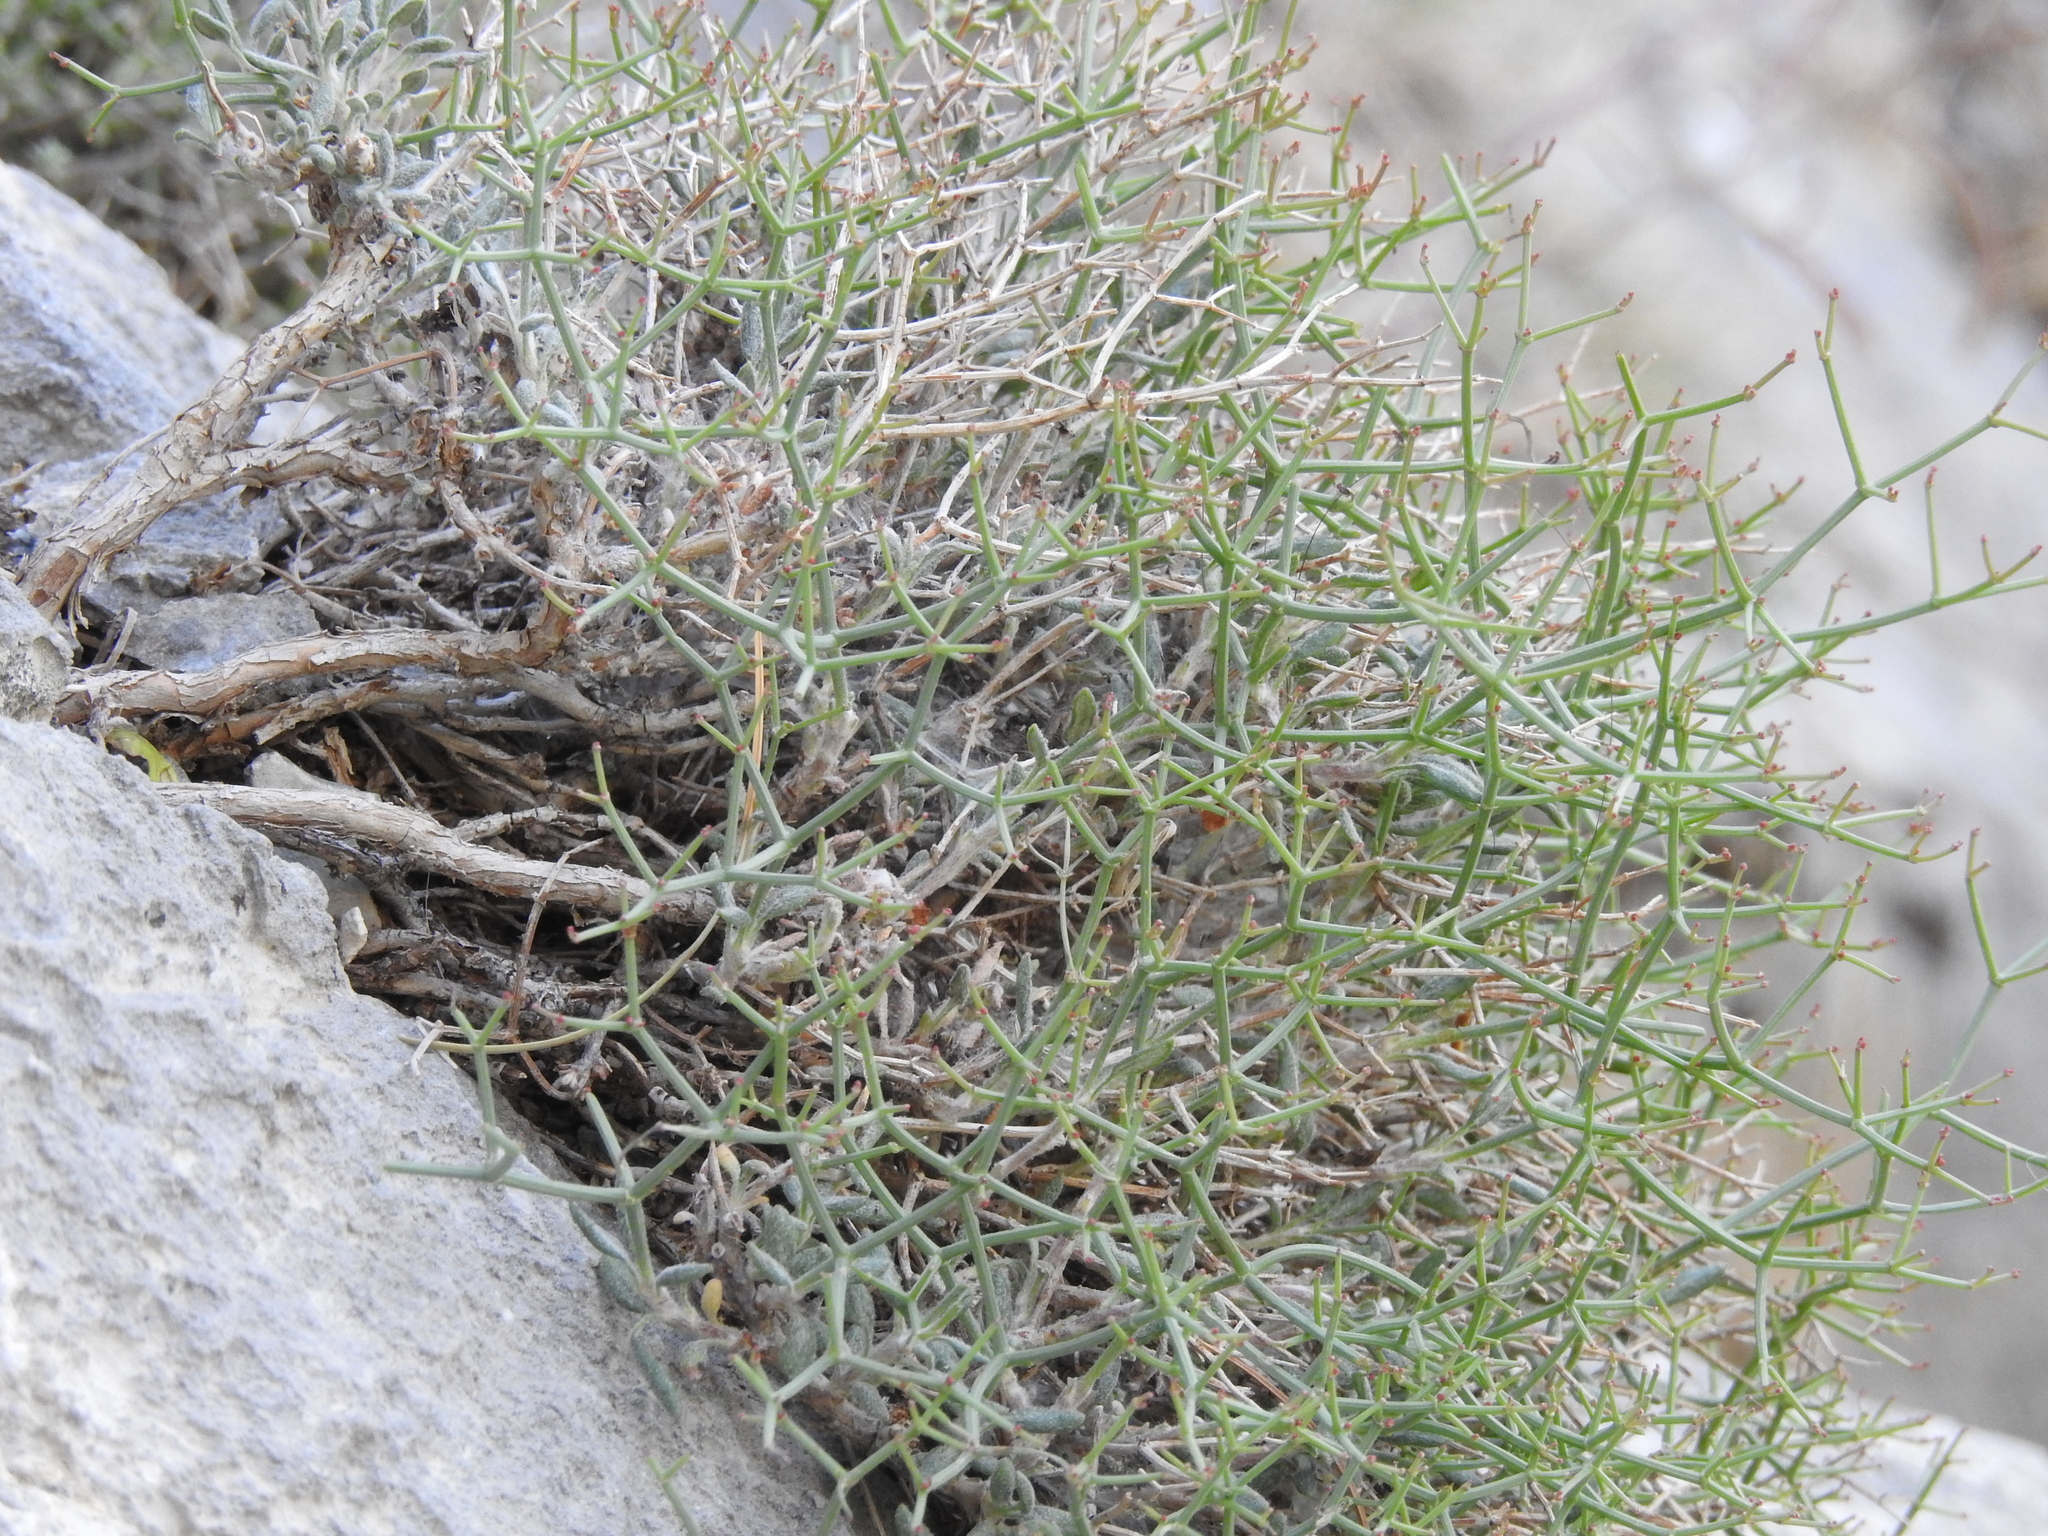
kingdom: Plantae
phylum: Tracheophyta
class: Magnoliopsida
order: Caryophyllales
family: Polygonaceae
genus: Eriogonum
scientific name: Eriogonum heermannii
